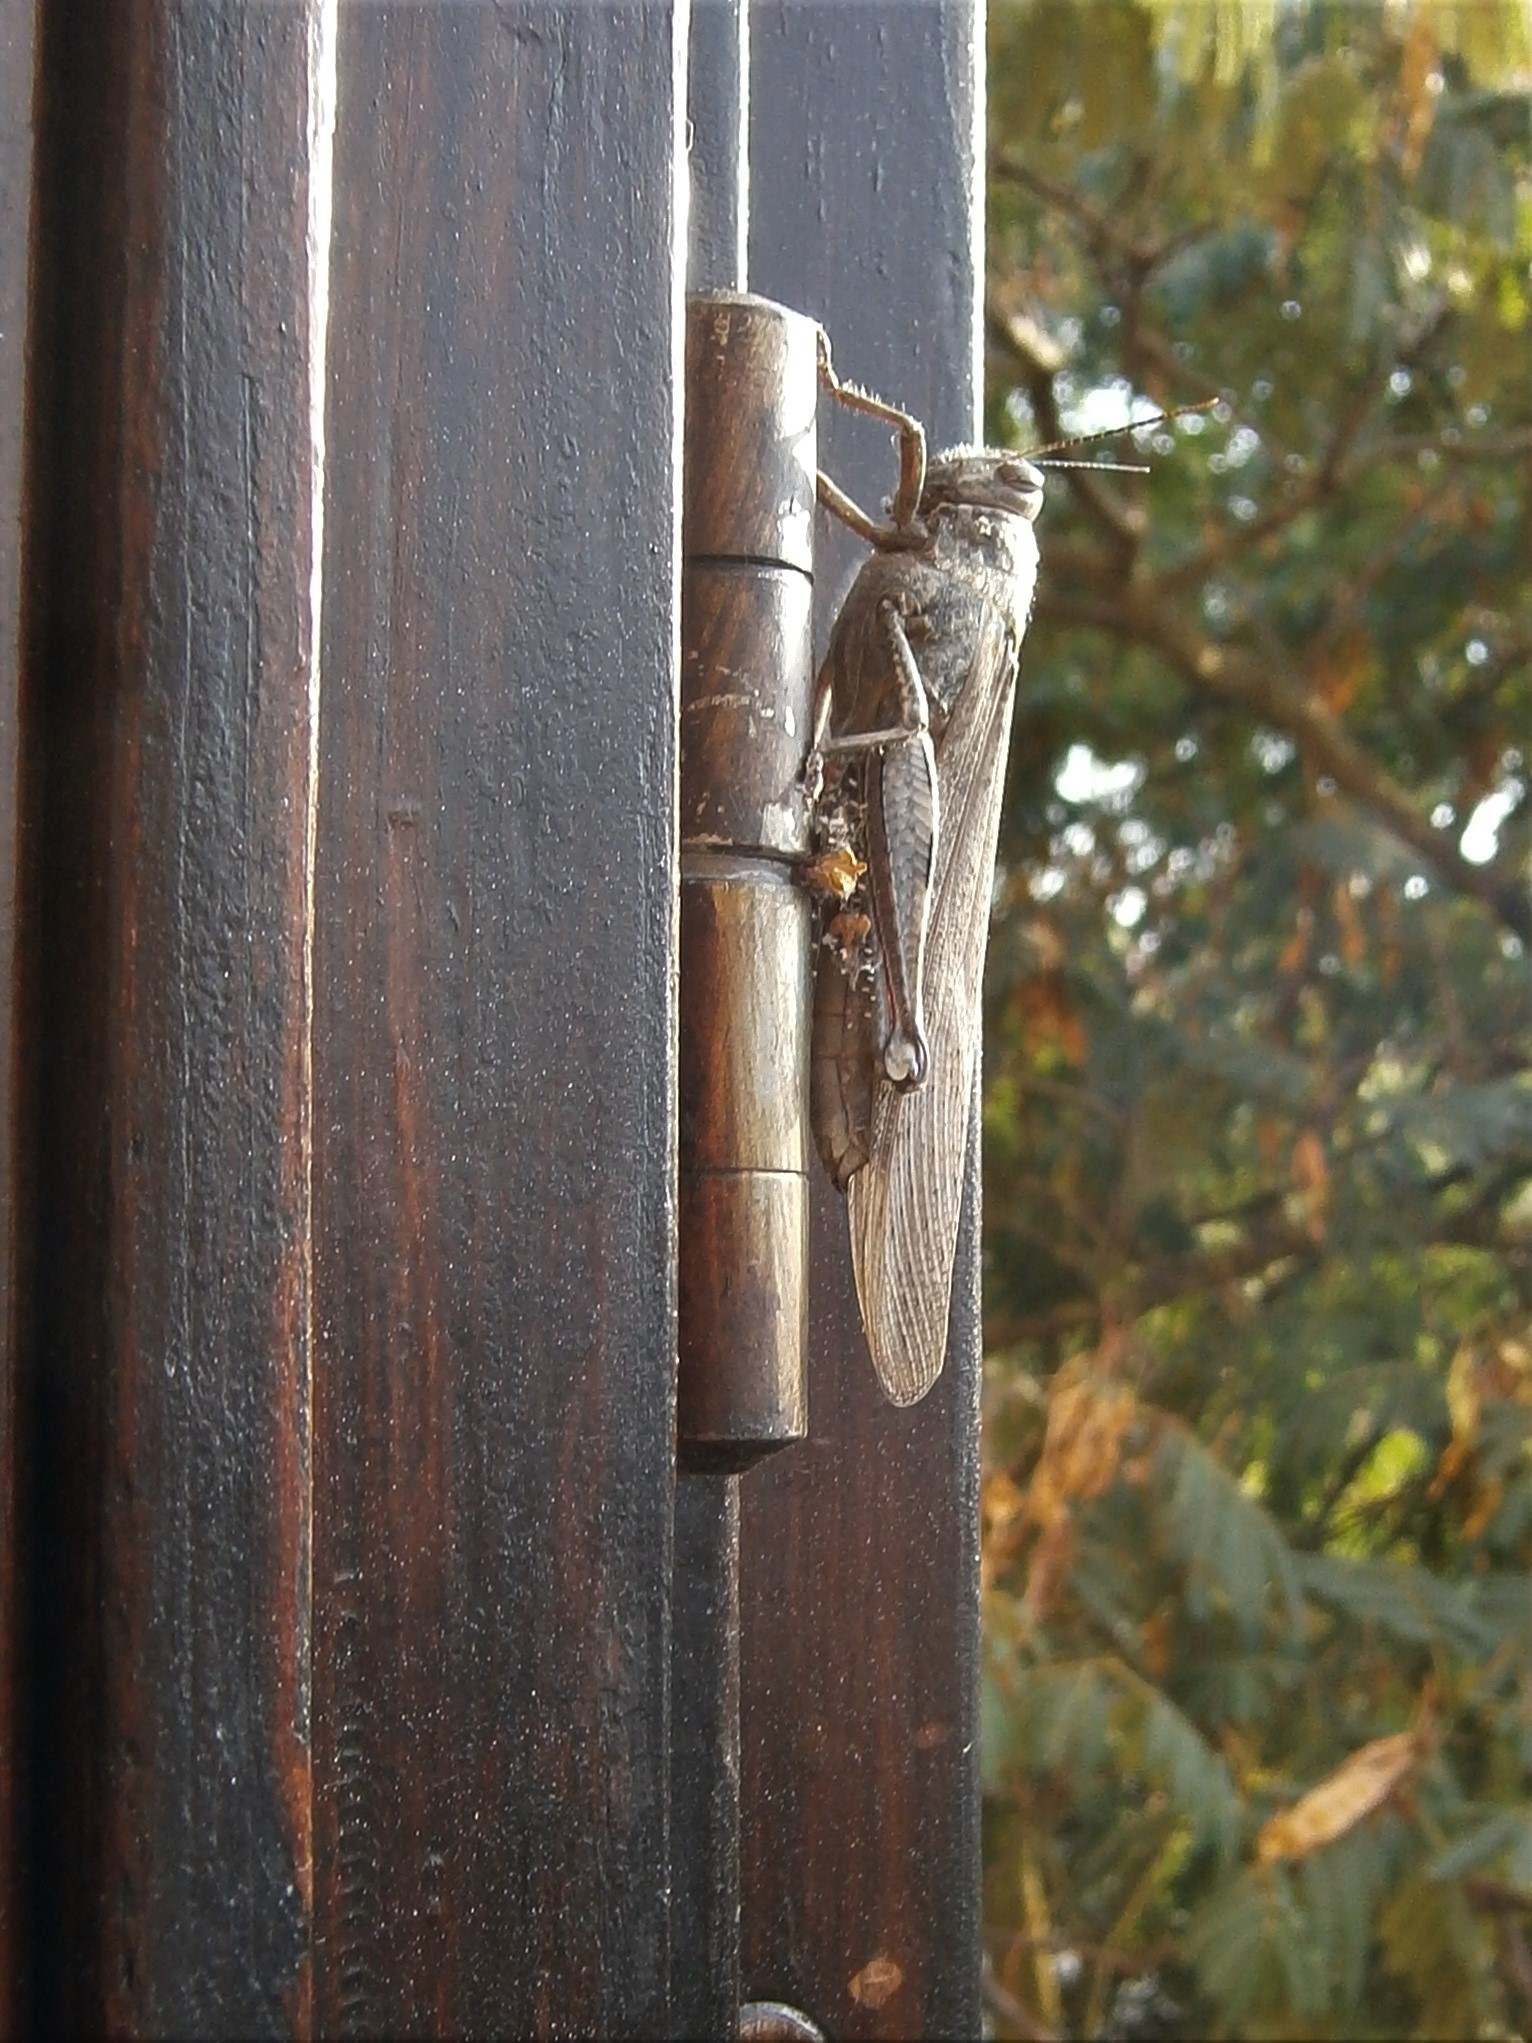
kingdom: Animalia
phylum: Arthropoda
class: Insecta
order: Orthoptera
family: Acrididae
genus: Anacridium
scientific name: Anacridium aegyptium
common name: Egyptian grasshopper
